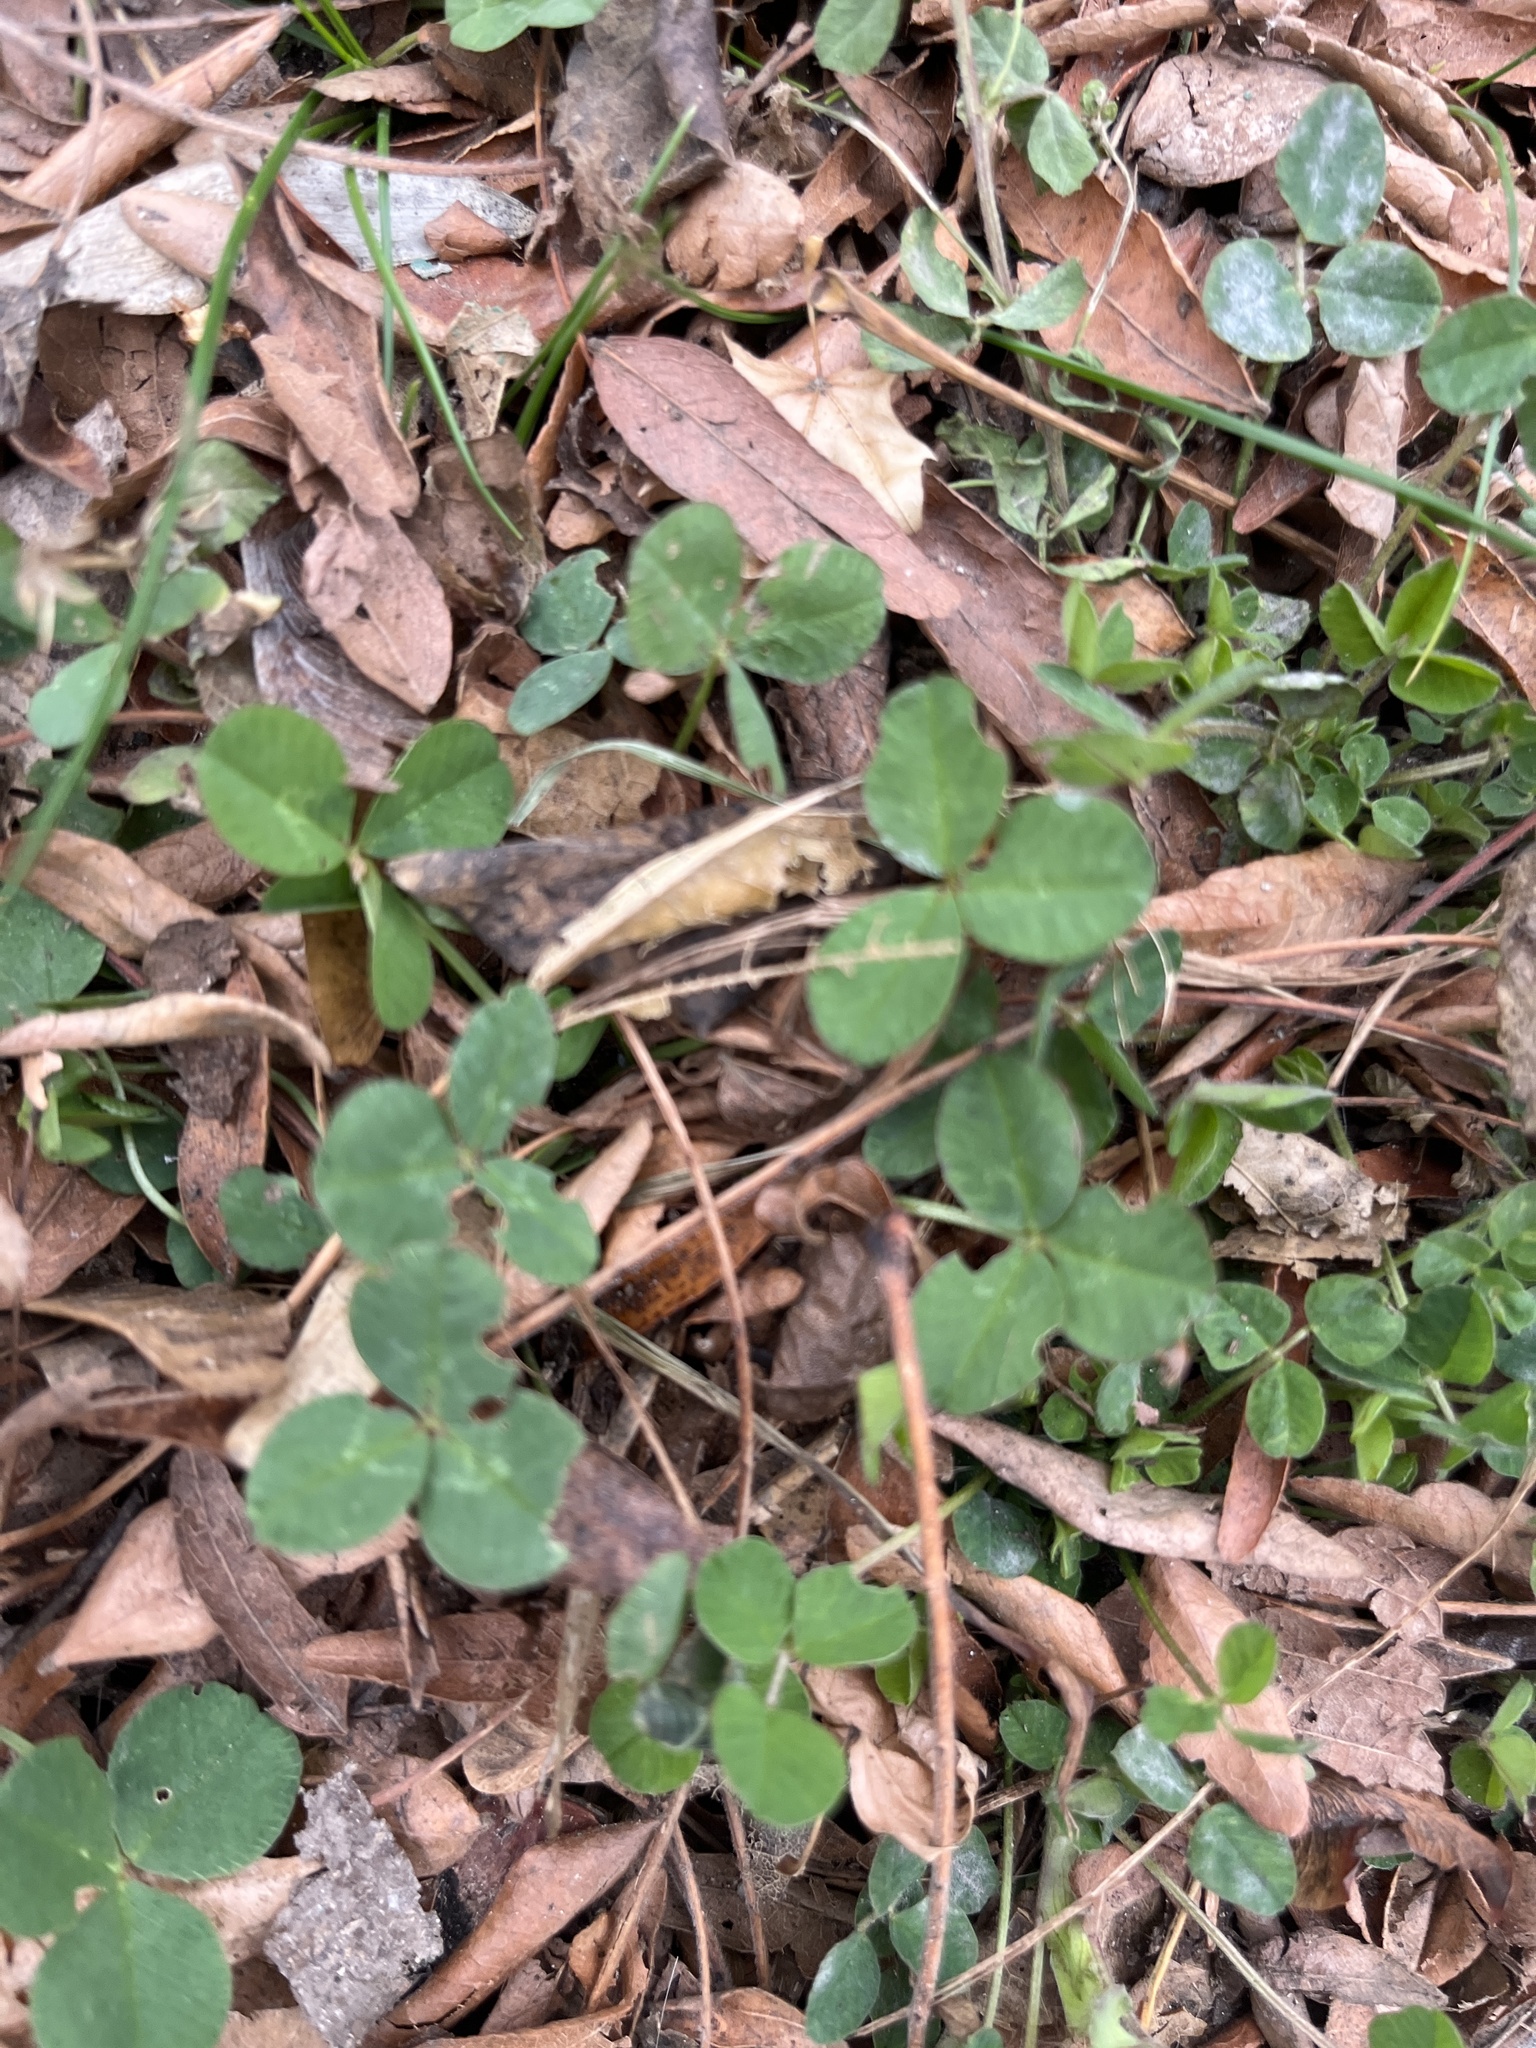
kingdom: Plantae
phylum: Tracheophyta
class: Magnoliopsida
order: Fabales
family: Fabaceae
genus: Trifolium
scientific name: Trifolium repens
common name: White clover
